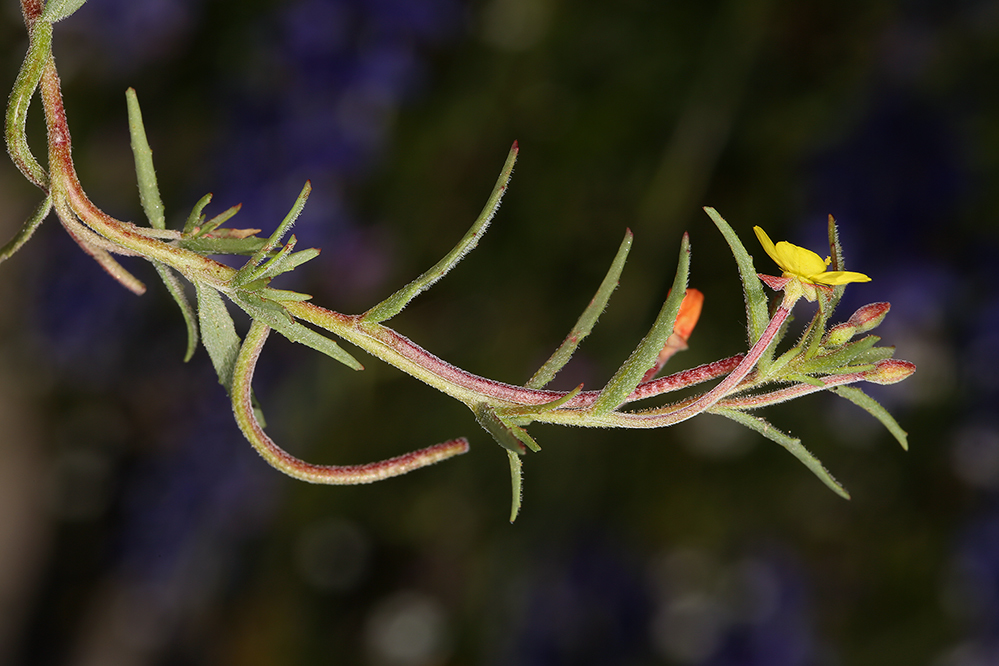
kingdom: Plantae
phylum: Tracheophyta
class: Magnoliopsida
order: Myrtales
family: Onagraceae
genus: Camissonia
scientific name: Camissonia strigulosa
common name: Contorted-primrose
